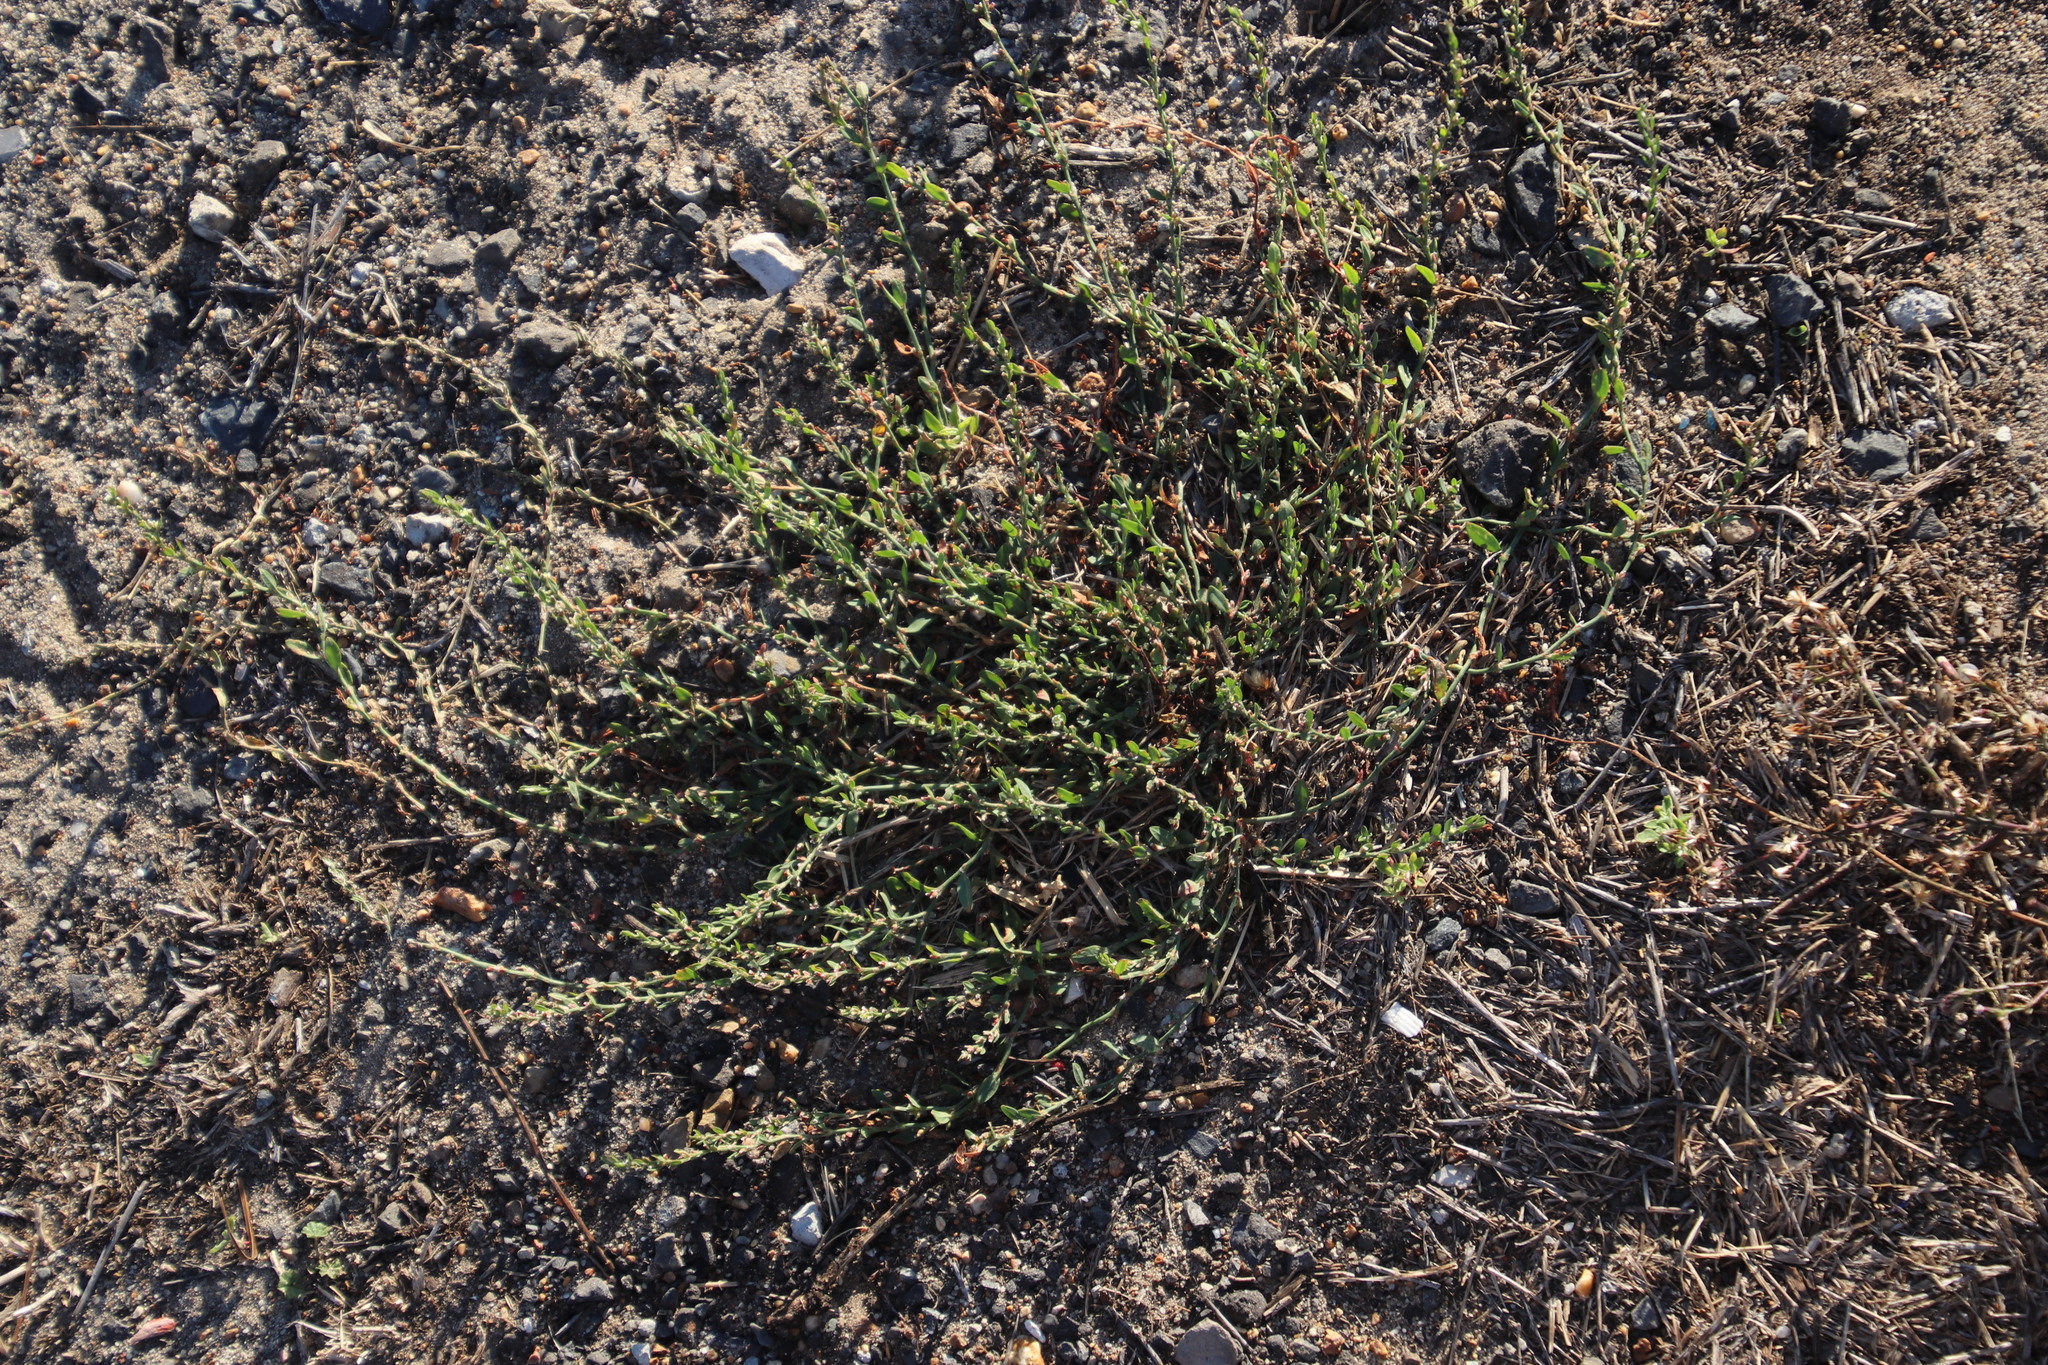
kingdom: Plantae
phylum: Tracheophyta
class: Magnoliopsida
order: Caryophyllales
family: Polygonaceae
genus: Polygonum
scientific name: Polygonum aviculare
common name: Prostrate knotweed
